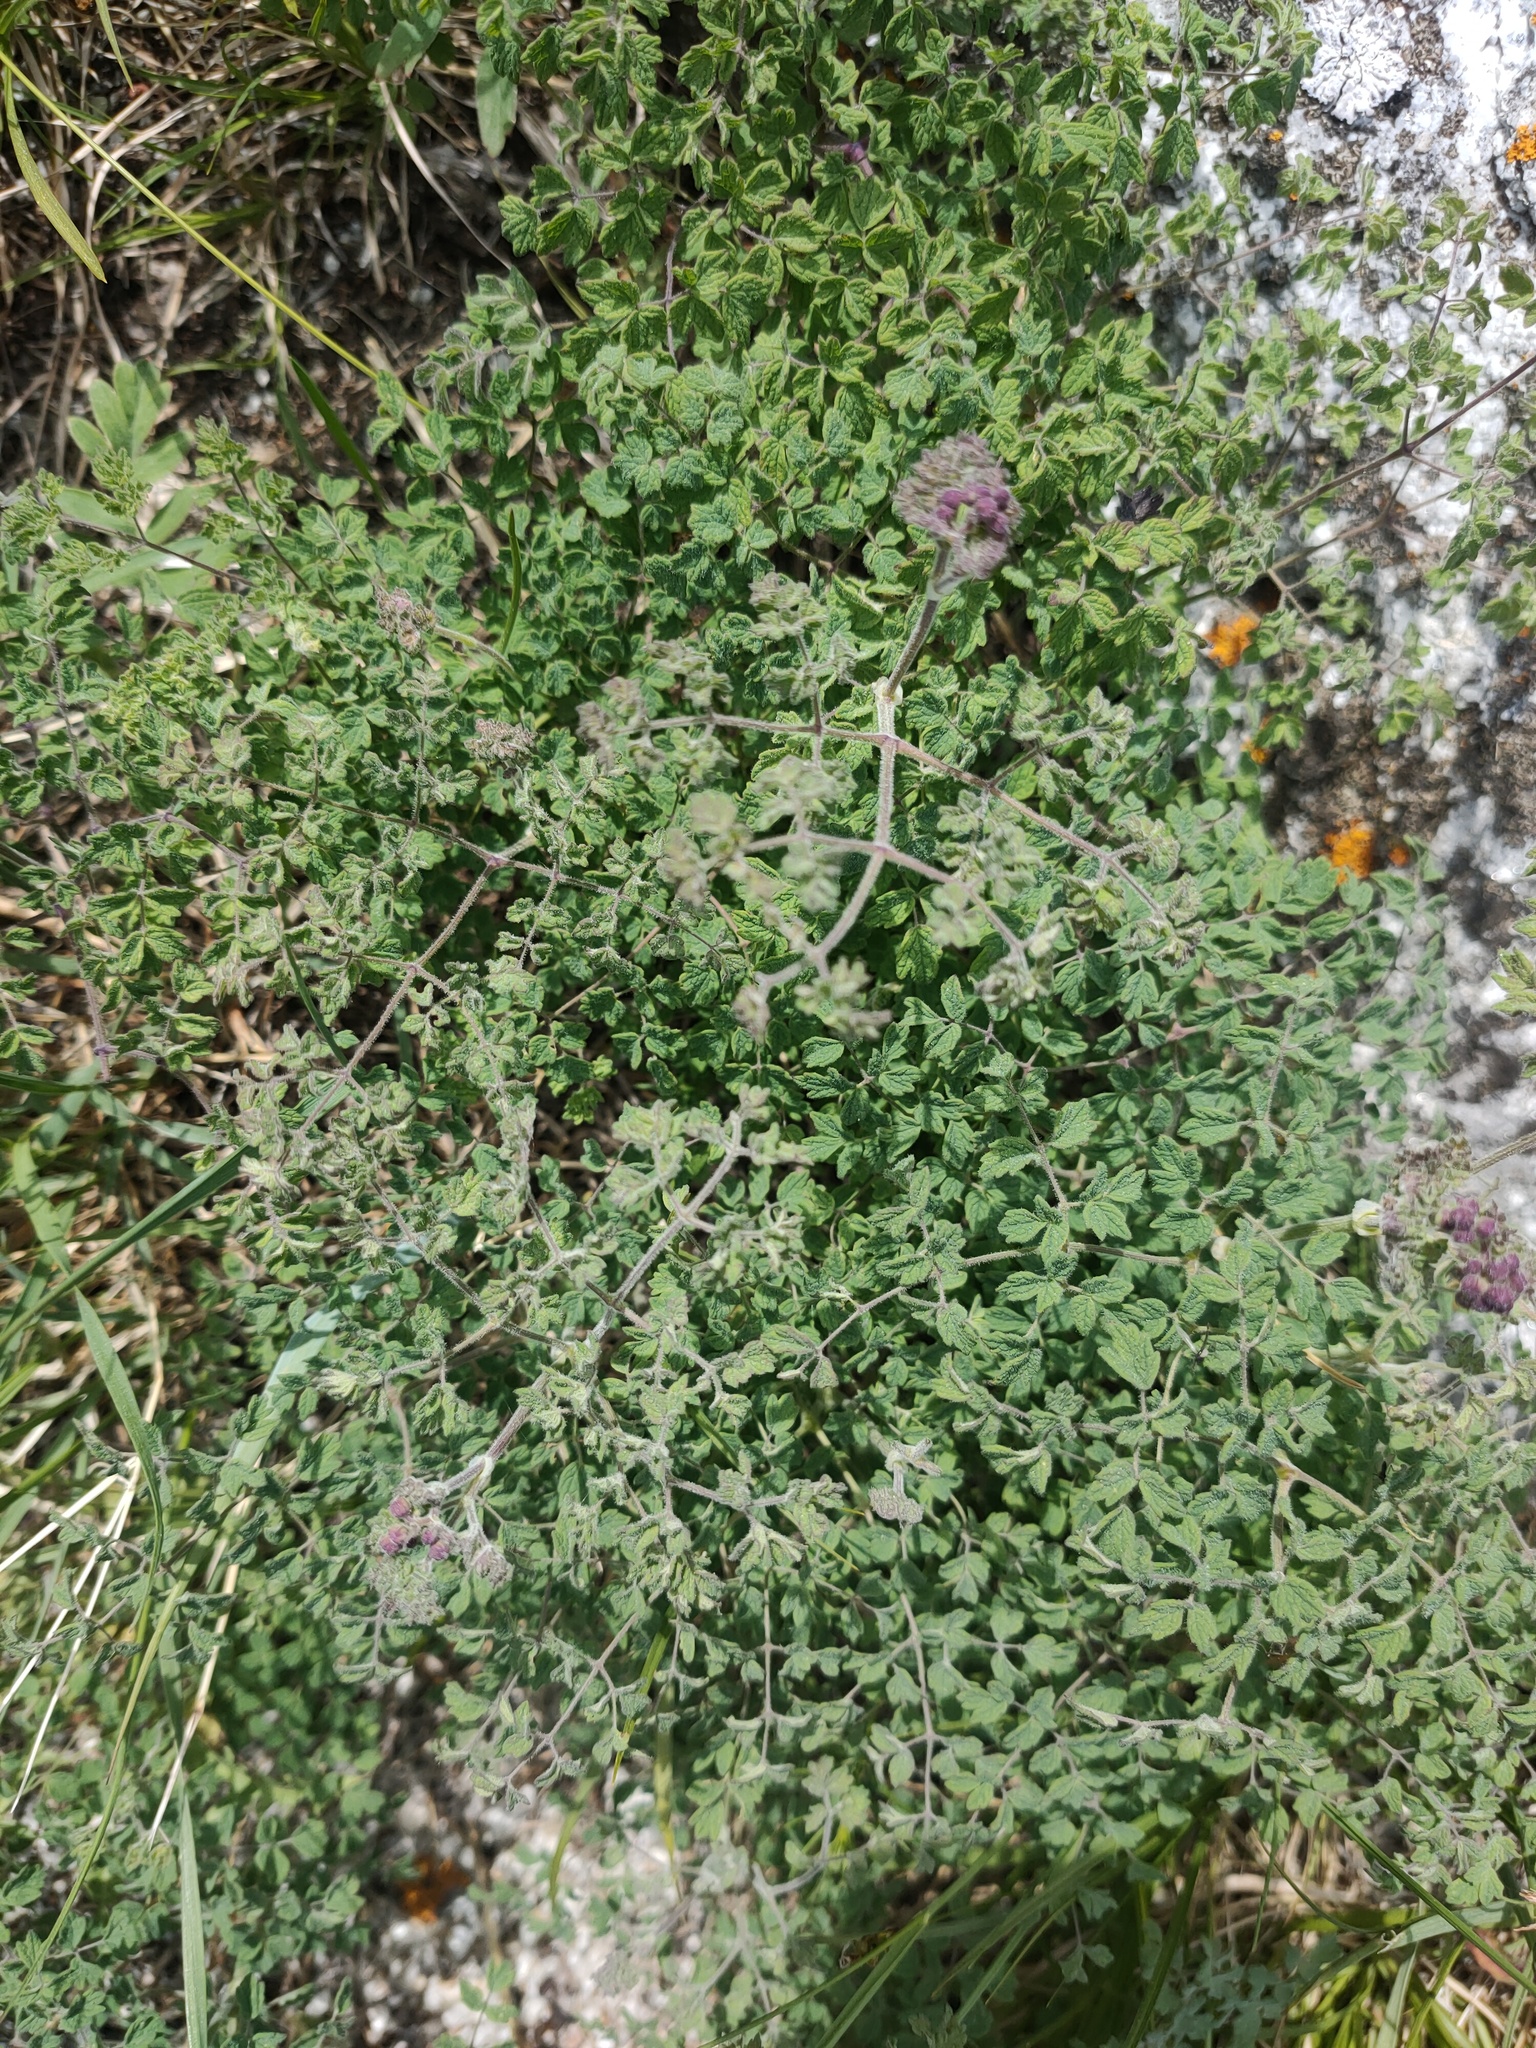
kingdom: Plantae
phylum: Tracheophyta
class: Magnoliopsida
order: Ranunculales
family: Ranunculaceae
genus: Thalictrum
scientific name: Thalictrum foetidum
